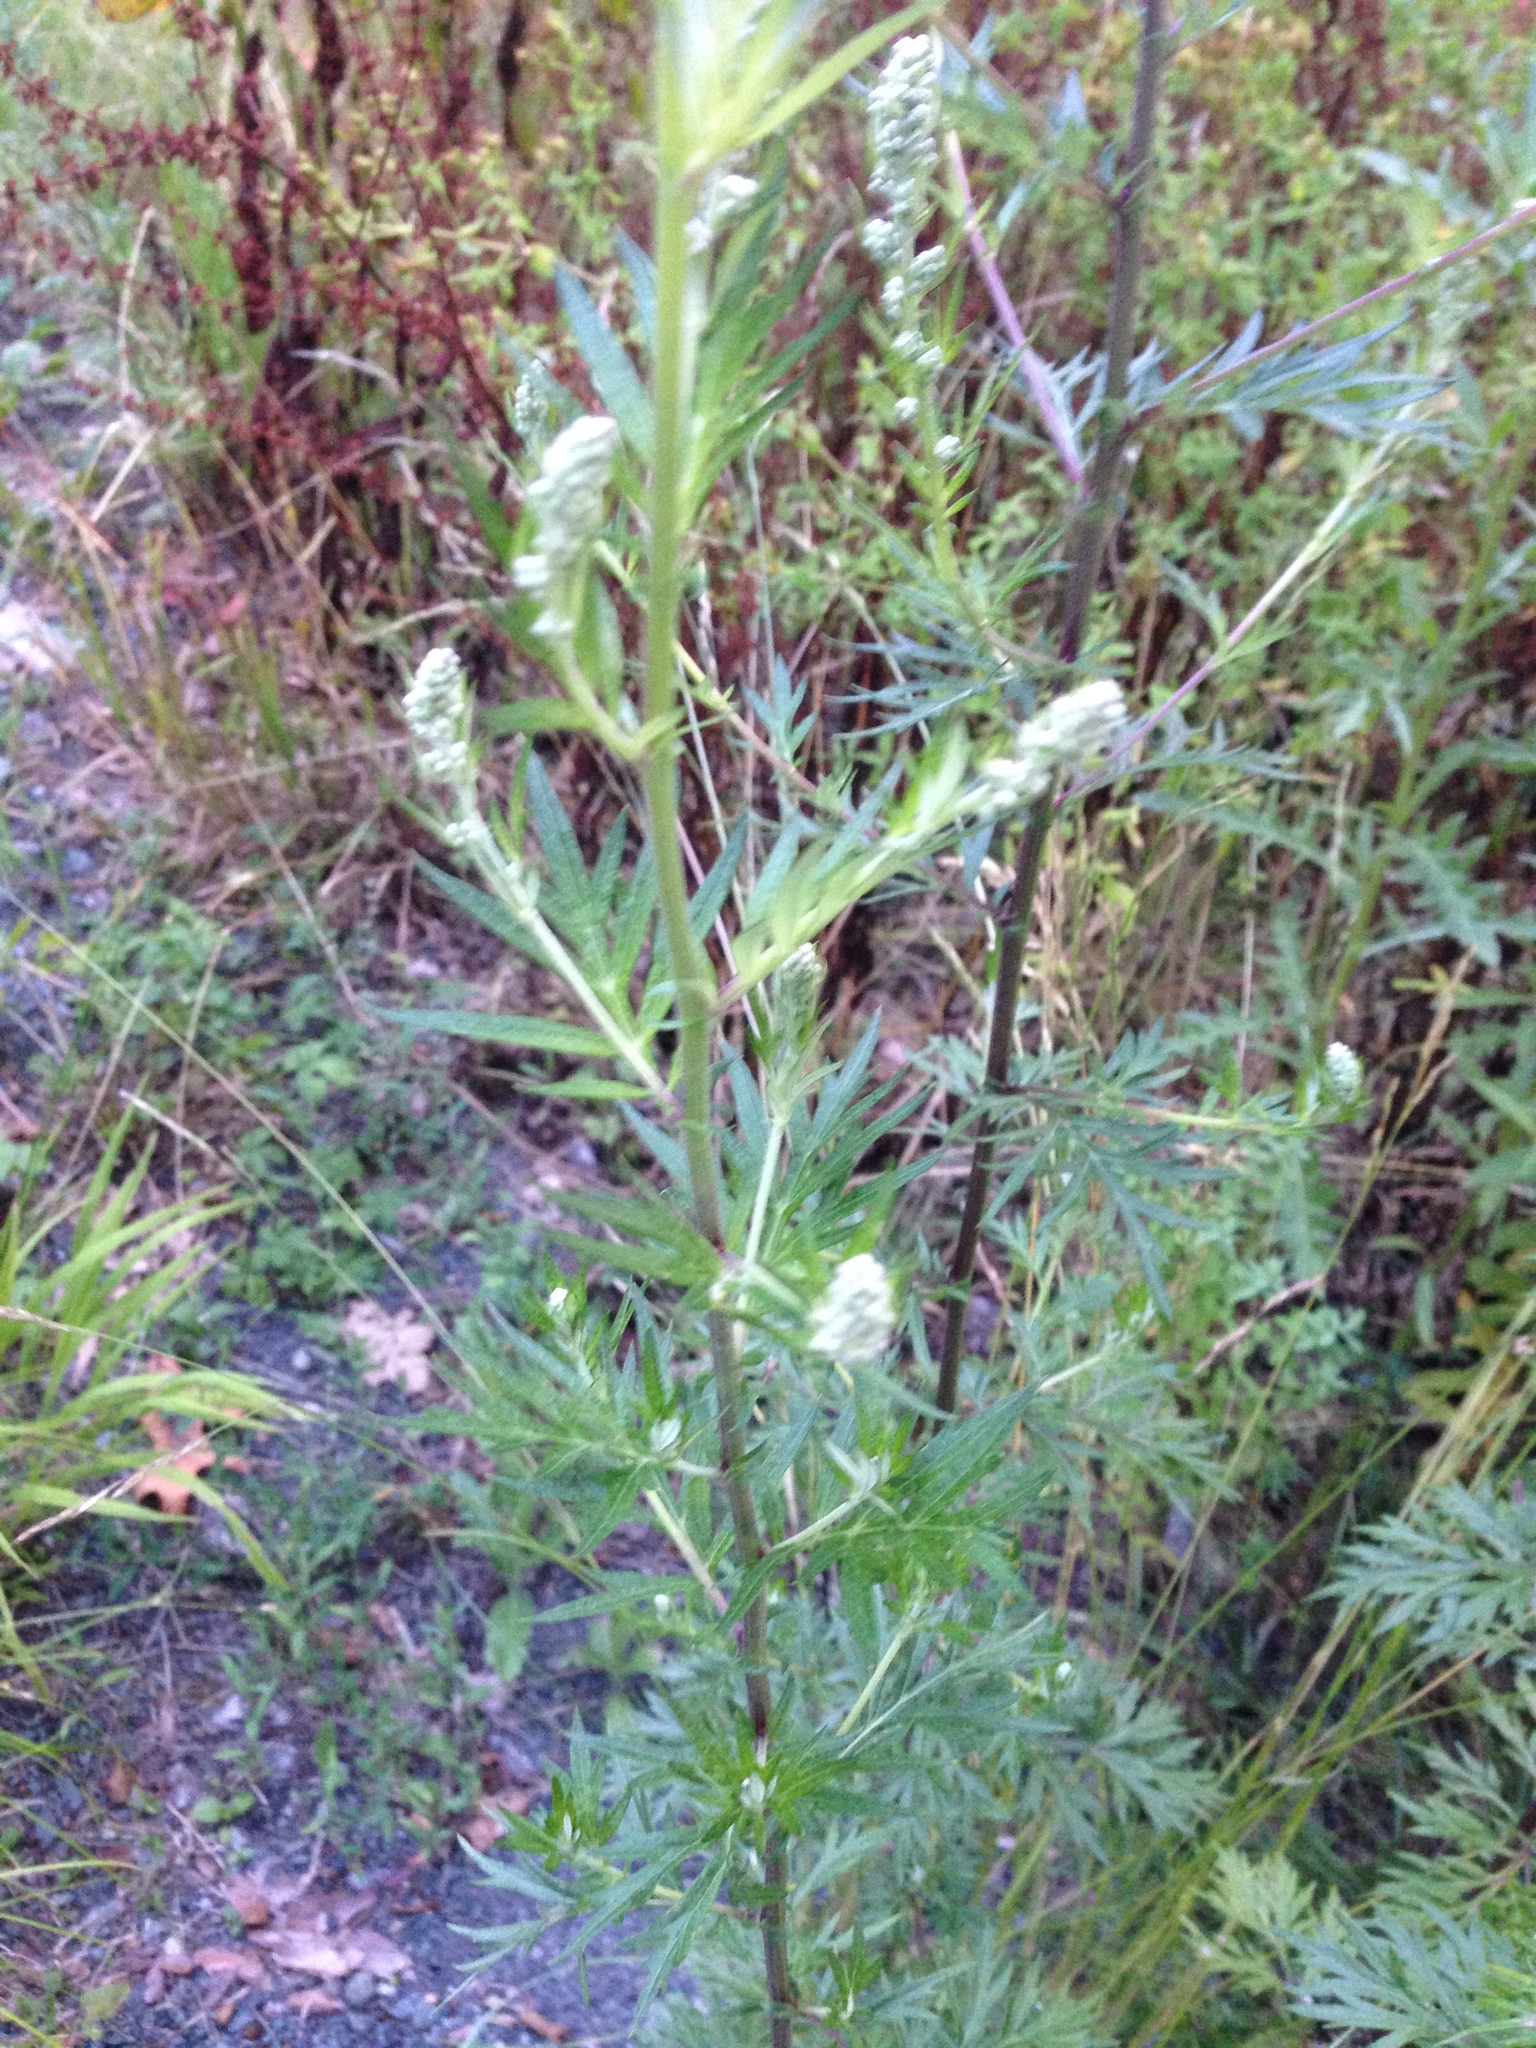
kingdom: Plantae
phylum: Tracheophyta
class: Magnoliopsida
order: Asterales
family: Asteraceae
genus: Artemisia
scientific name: Artemisia vulgaris
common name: Mugwort
